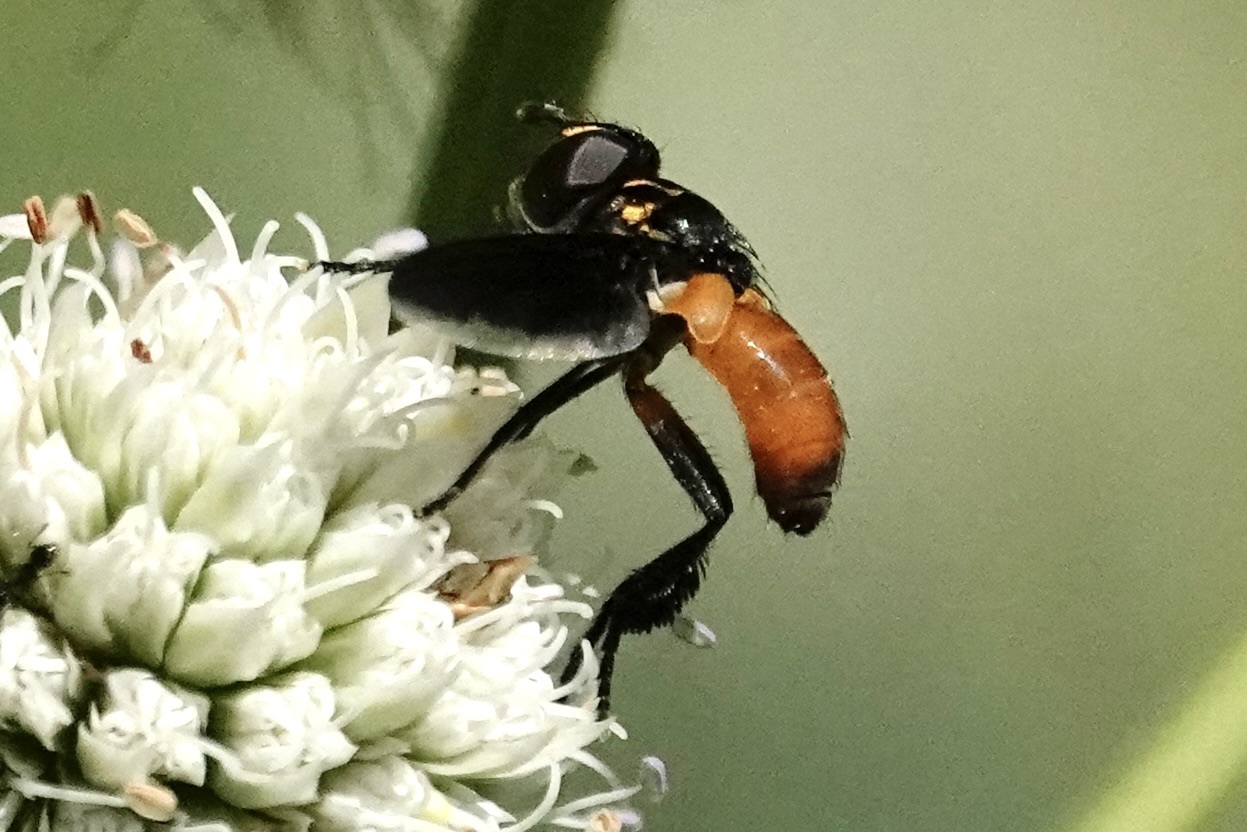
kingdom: Animalia
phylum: Arthropoda
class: Insecta
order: Diptera
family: Tachinidae
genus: Trichopoda
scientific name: Trichopoda pennipes
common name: Tachinid fly
